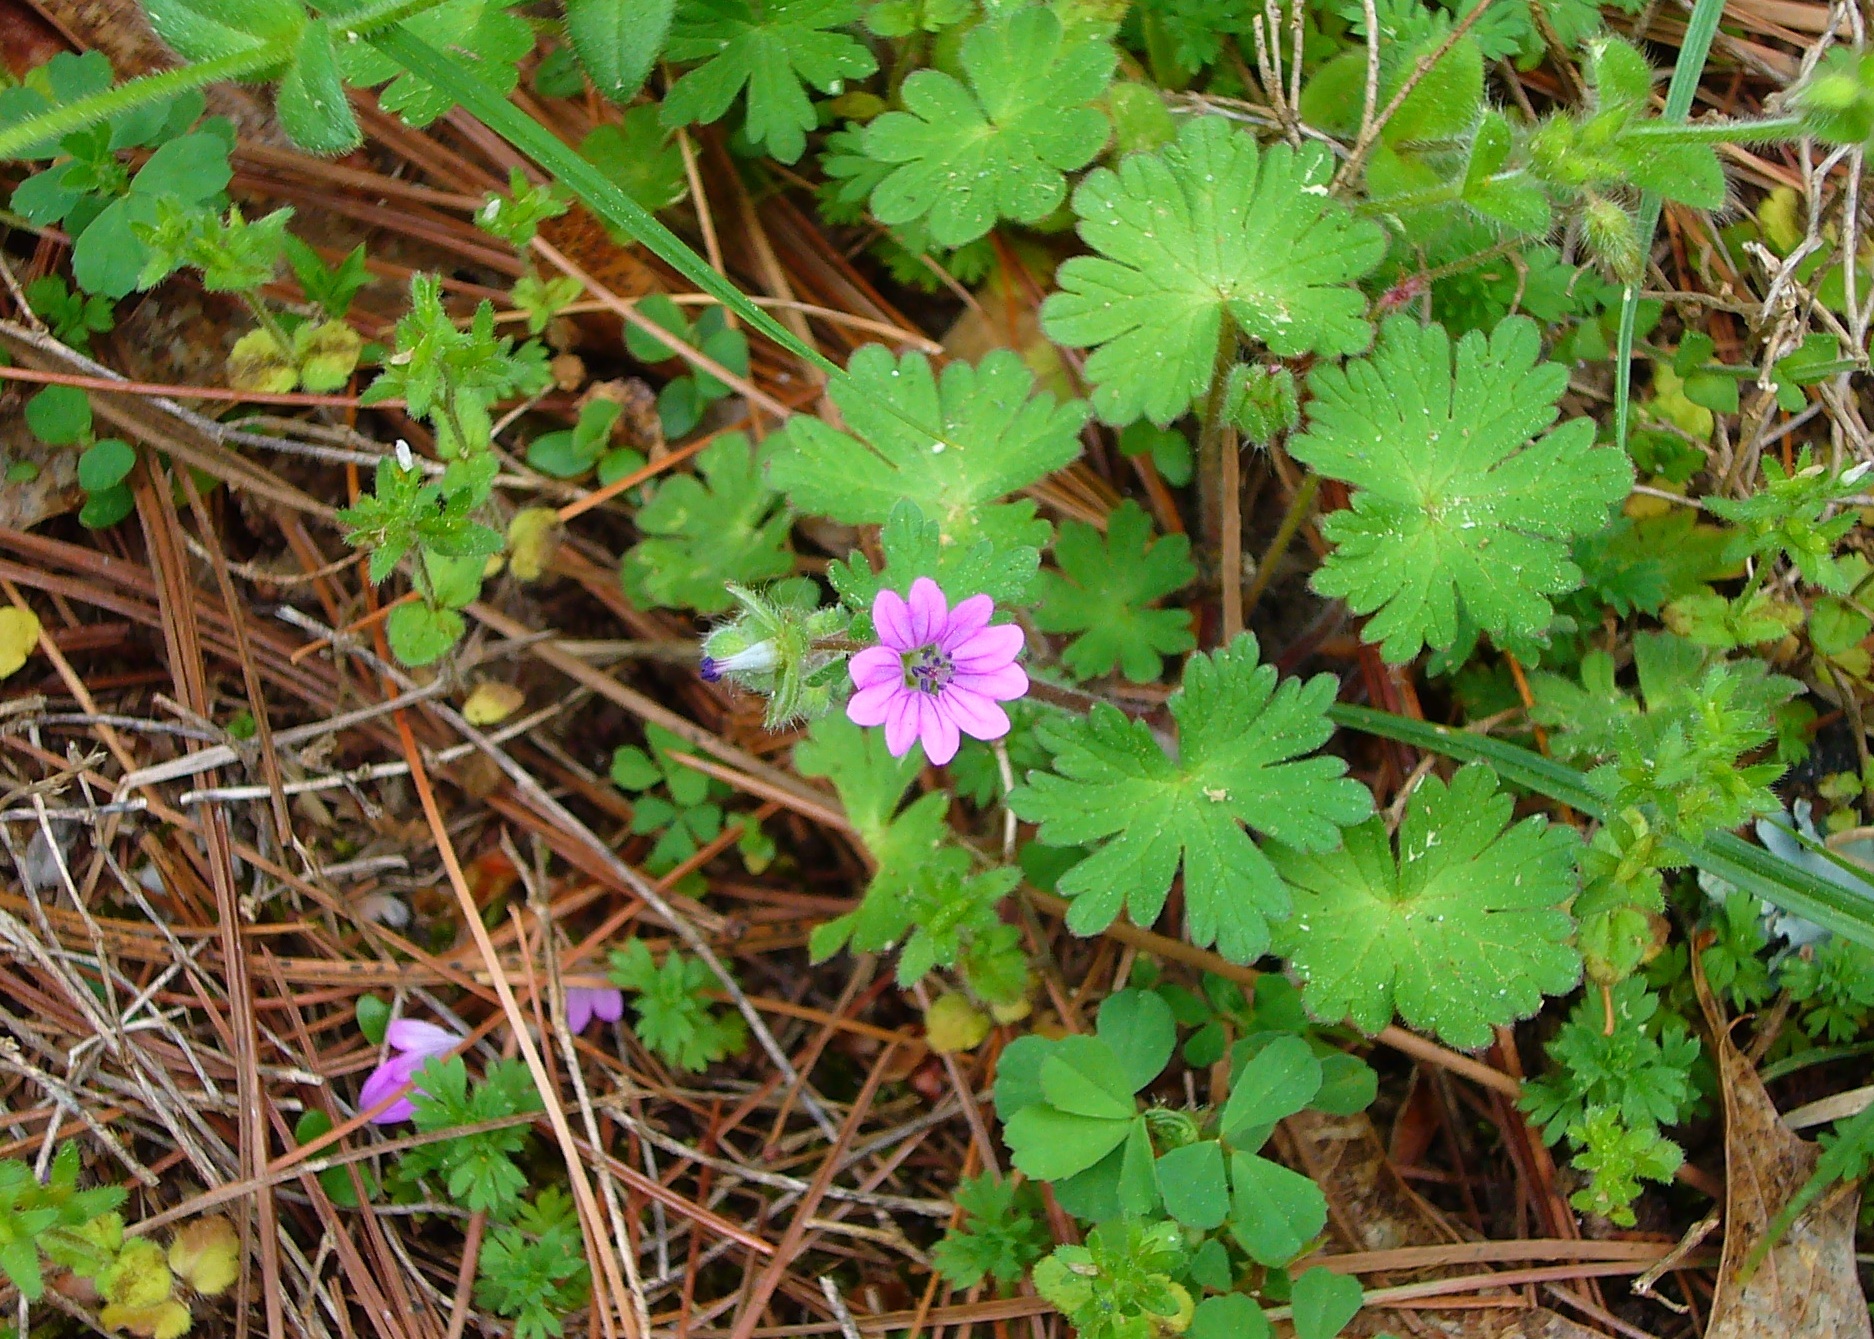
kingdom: Plantae
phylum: Tracheophyta
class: Magnoliopsida
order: Geraniales
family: Geraniaceae
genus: Geranium
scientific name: Geranium molle
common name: Dove's-foot crane's-bill
